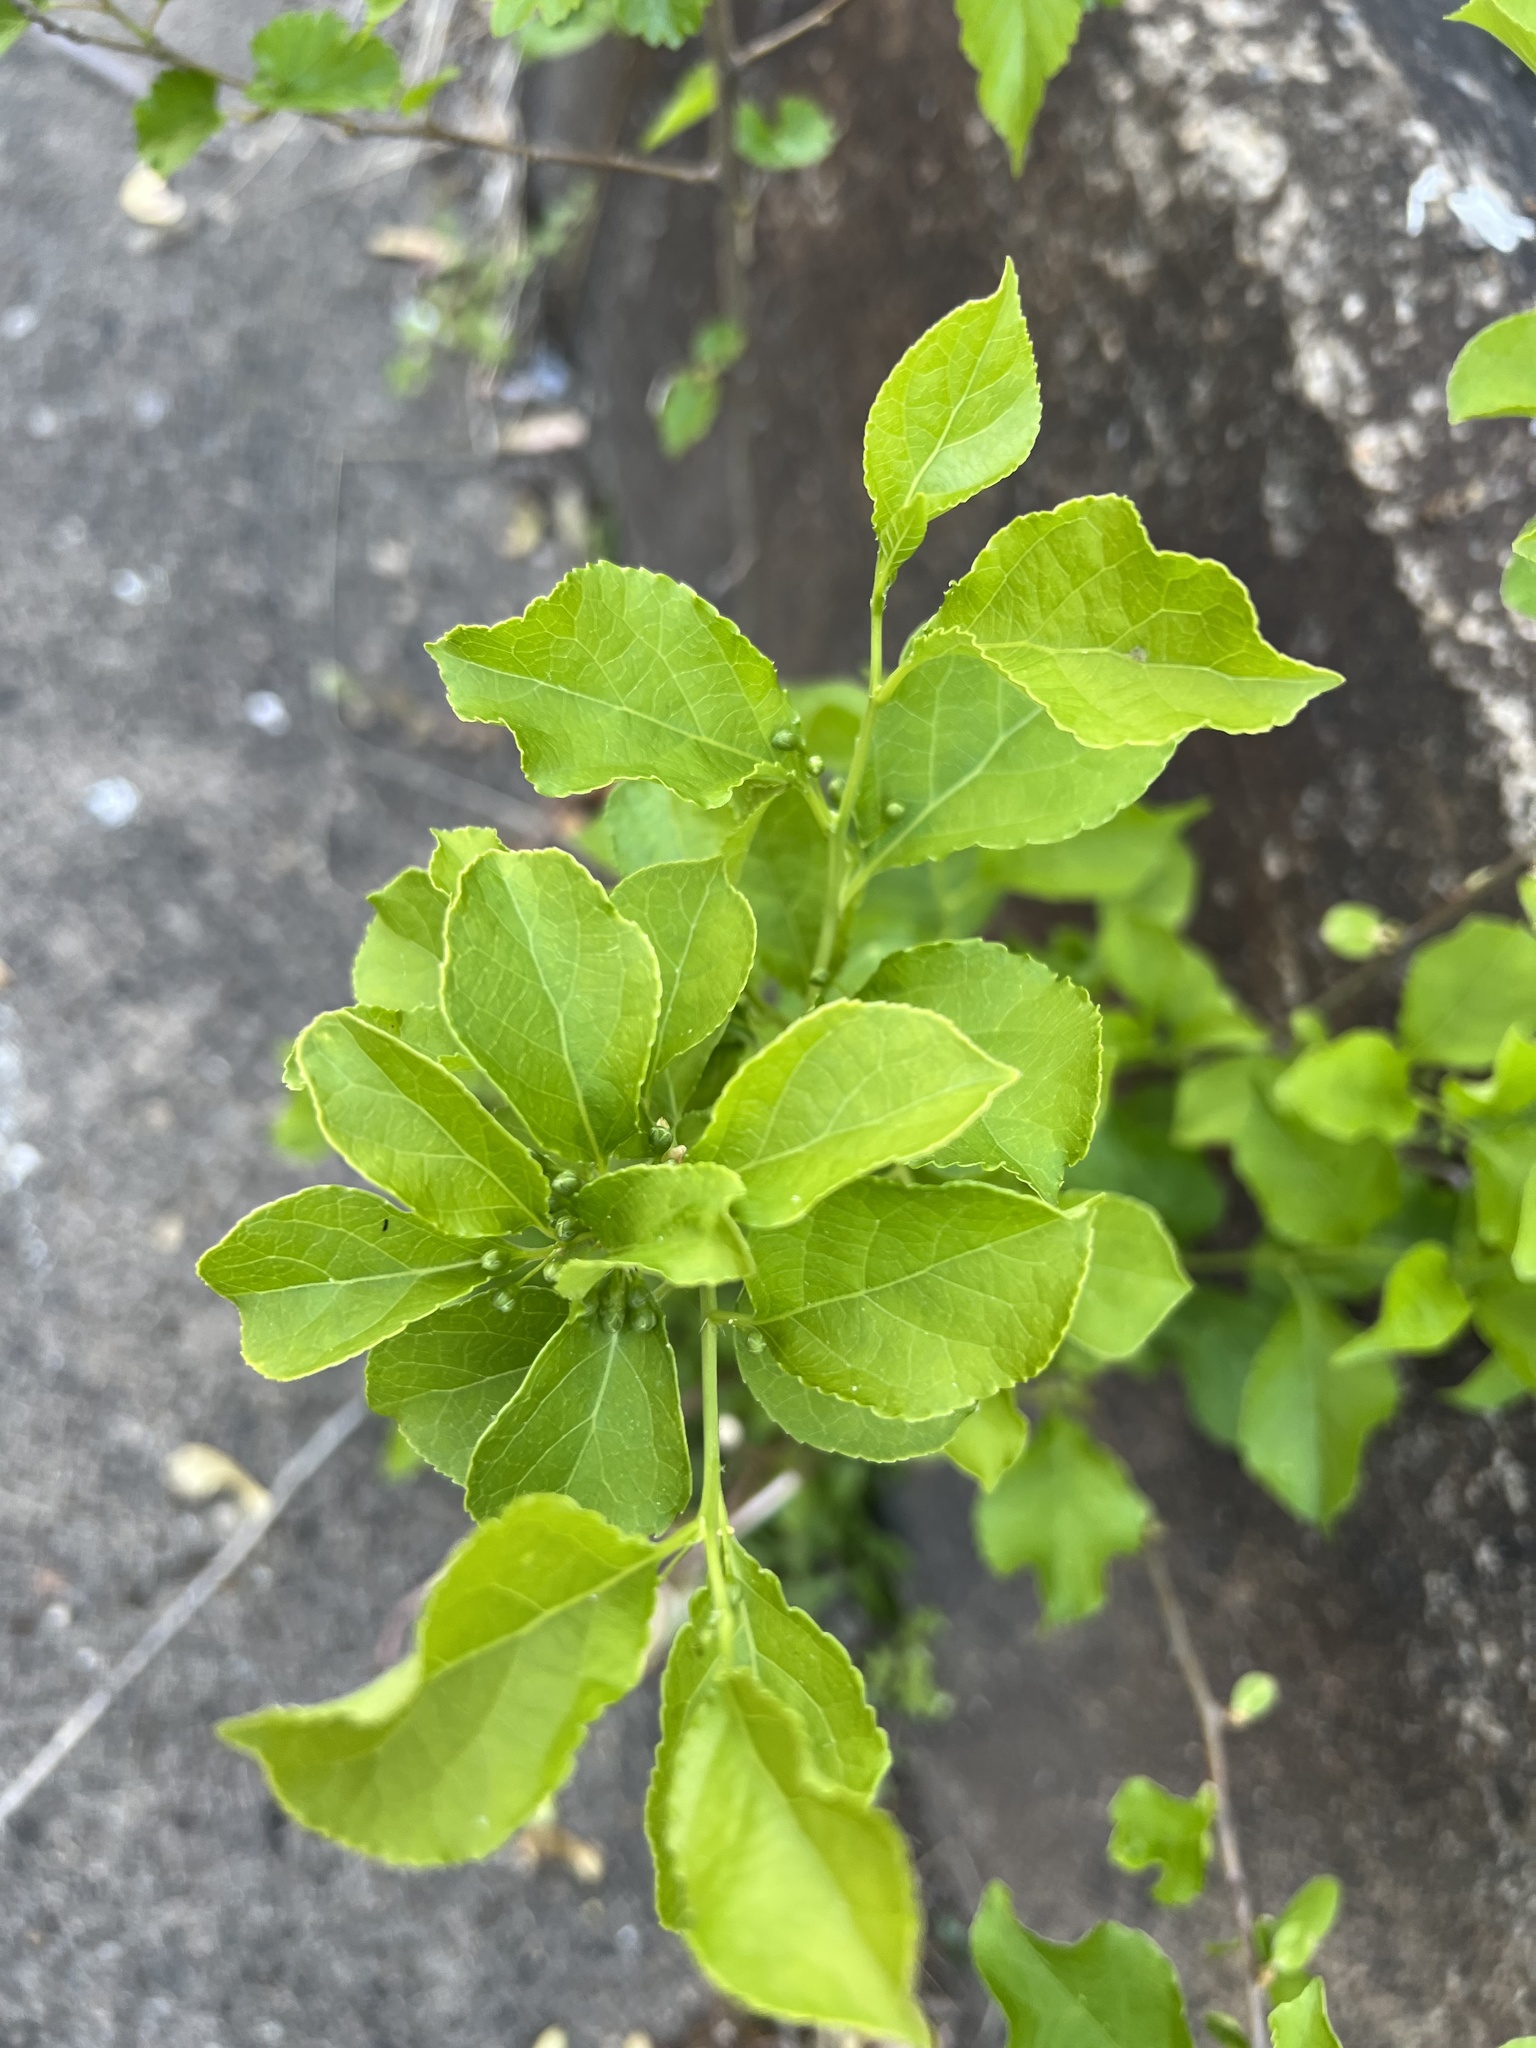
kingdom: Plantae
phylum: Tracheophyta
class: Magnoliopsida
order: Celastrales
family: Celastraceae
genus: Celastrus
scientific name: Celastrus orbiculatus
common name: Oriental bittersweet
